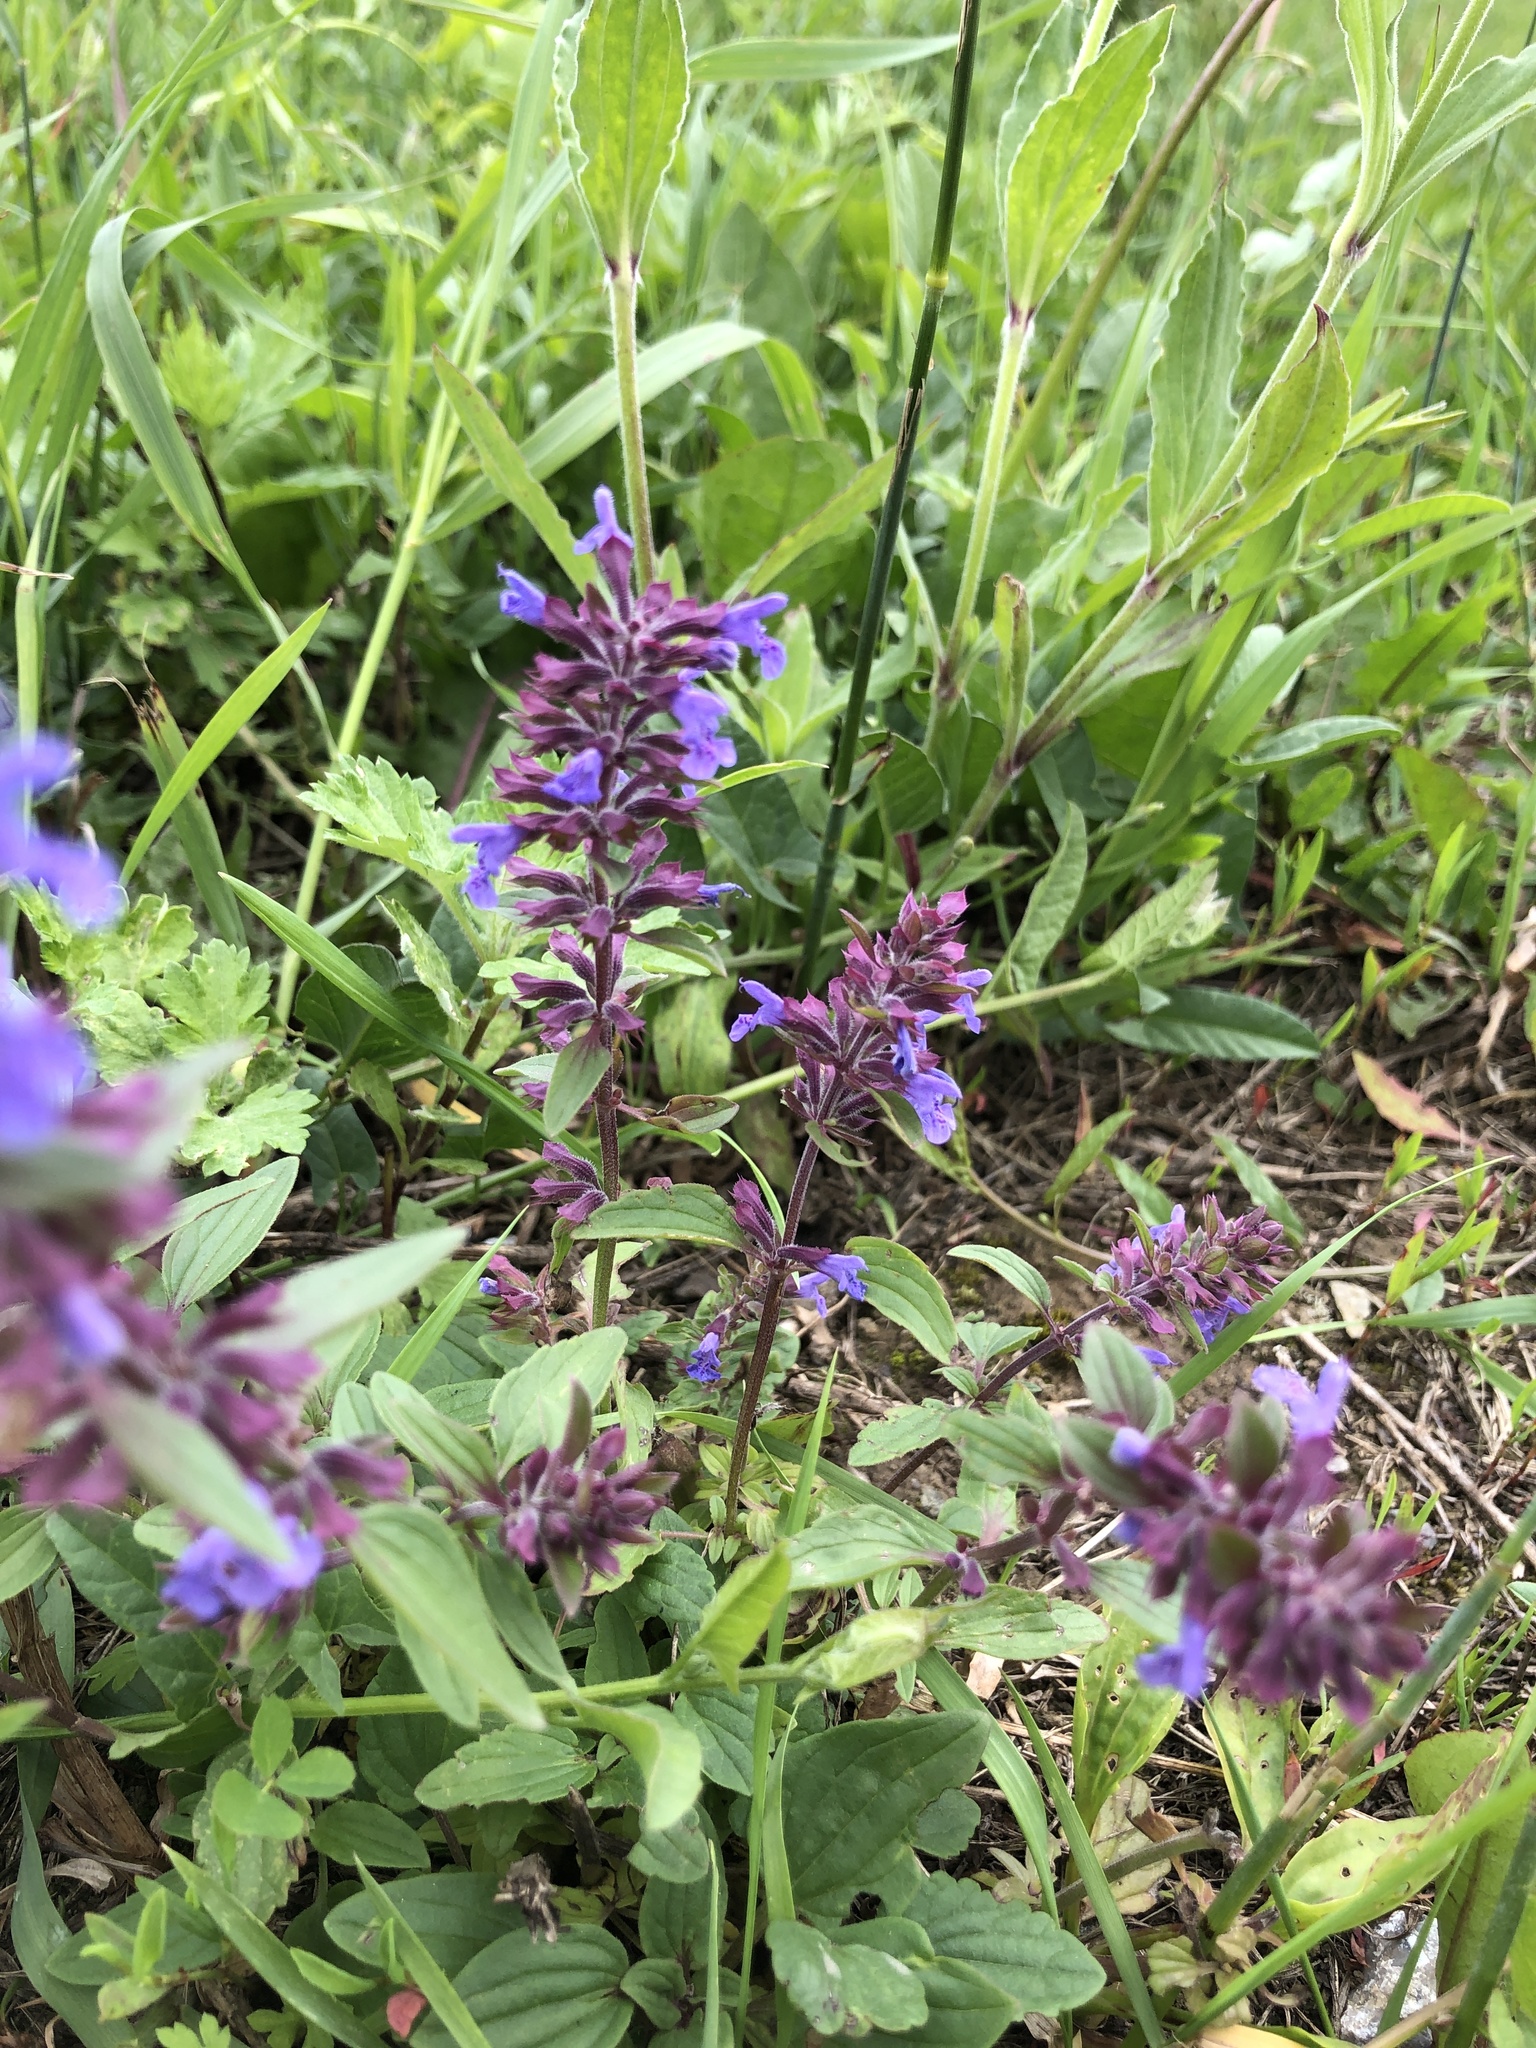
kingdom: Plantae
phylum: Tracheophyta
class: Magnoliopsida
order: Lamiales
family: Lamiaceae
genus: Dracocephalum
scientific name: Dracocephalum nutans
